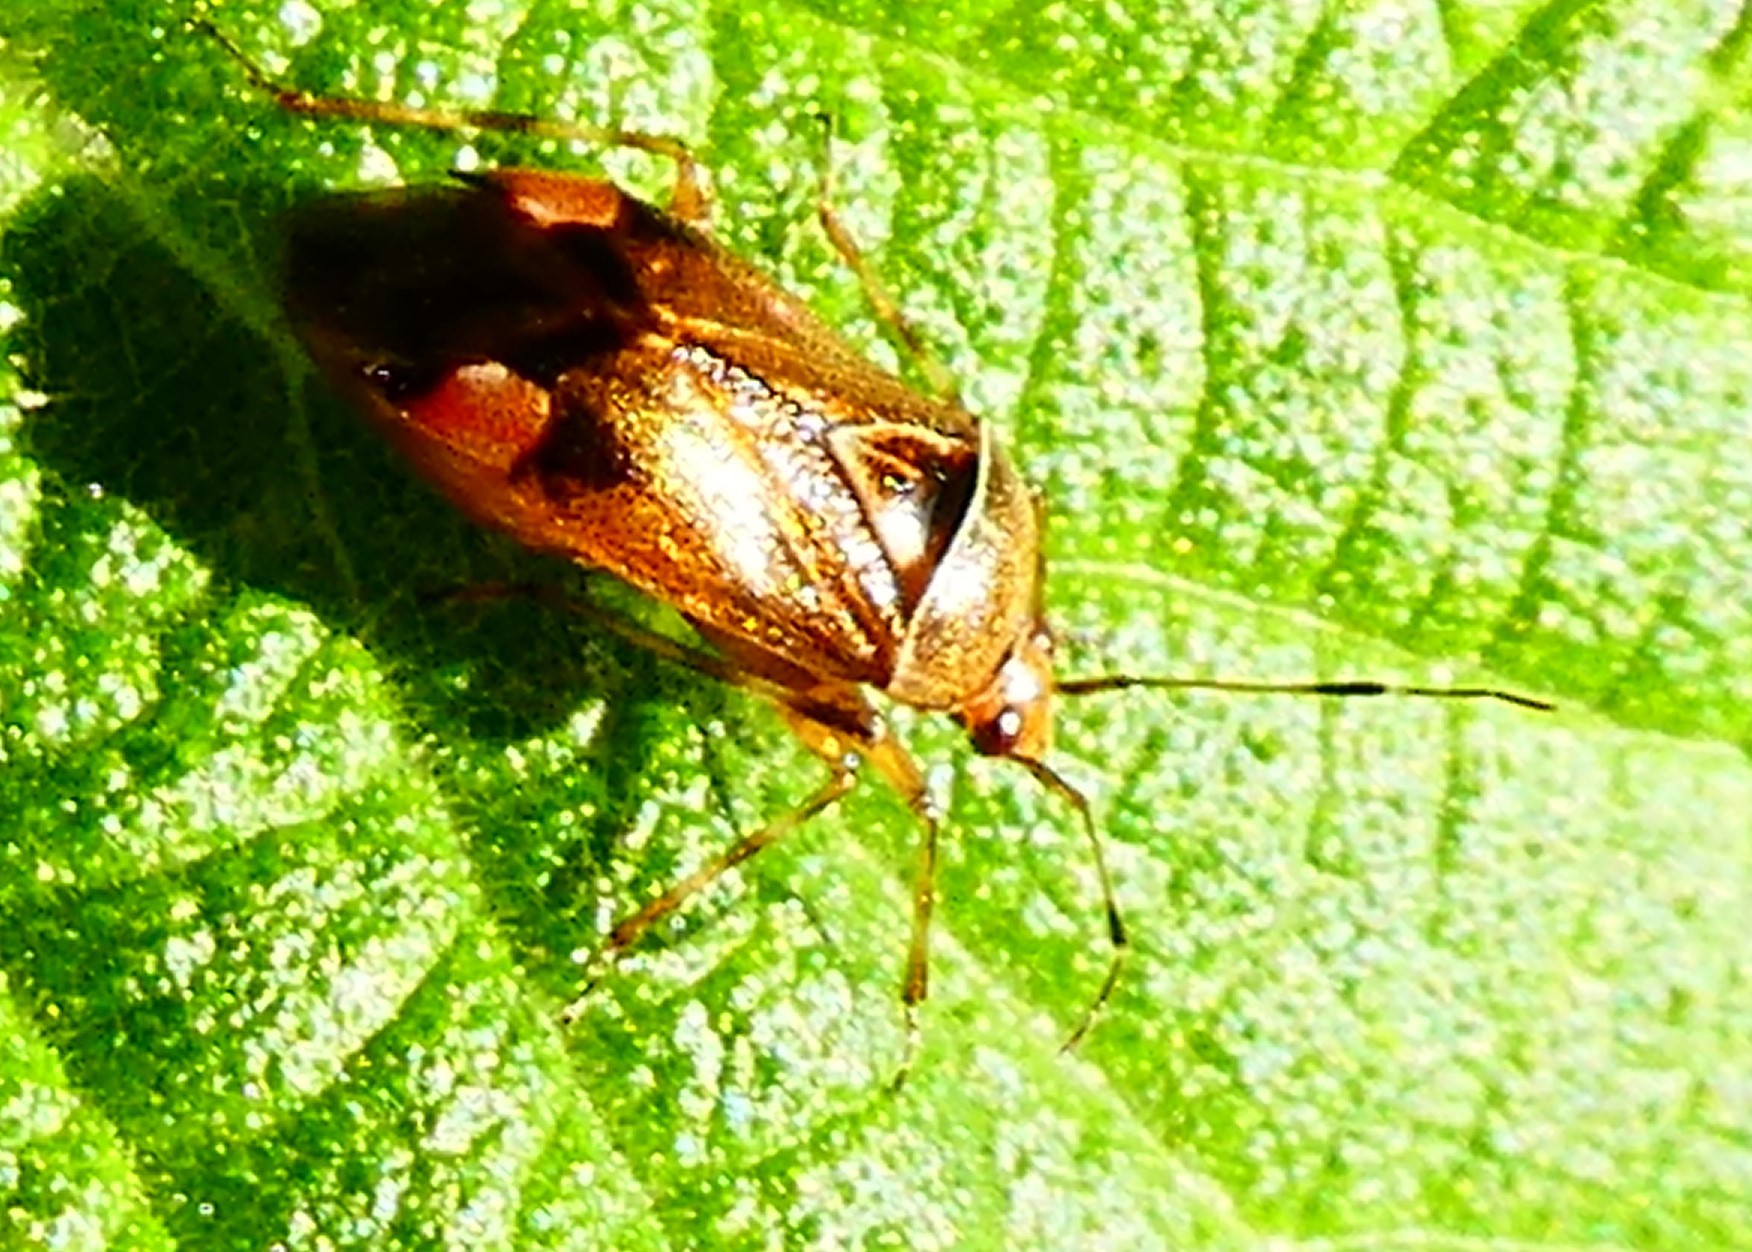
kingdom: Animalia
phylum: Arthropoda
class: Insecta
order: Hemiptera
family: Miridae
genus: Deraeocoris
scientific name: Deraeocoris flavilinea
